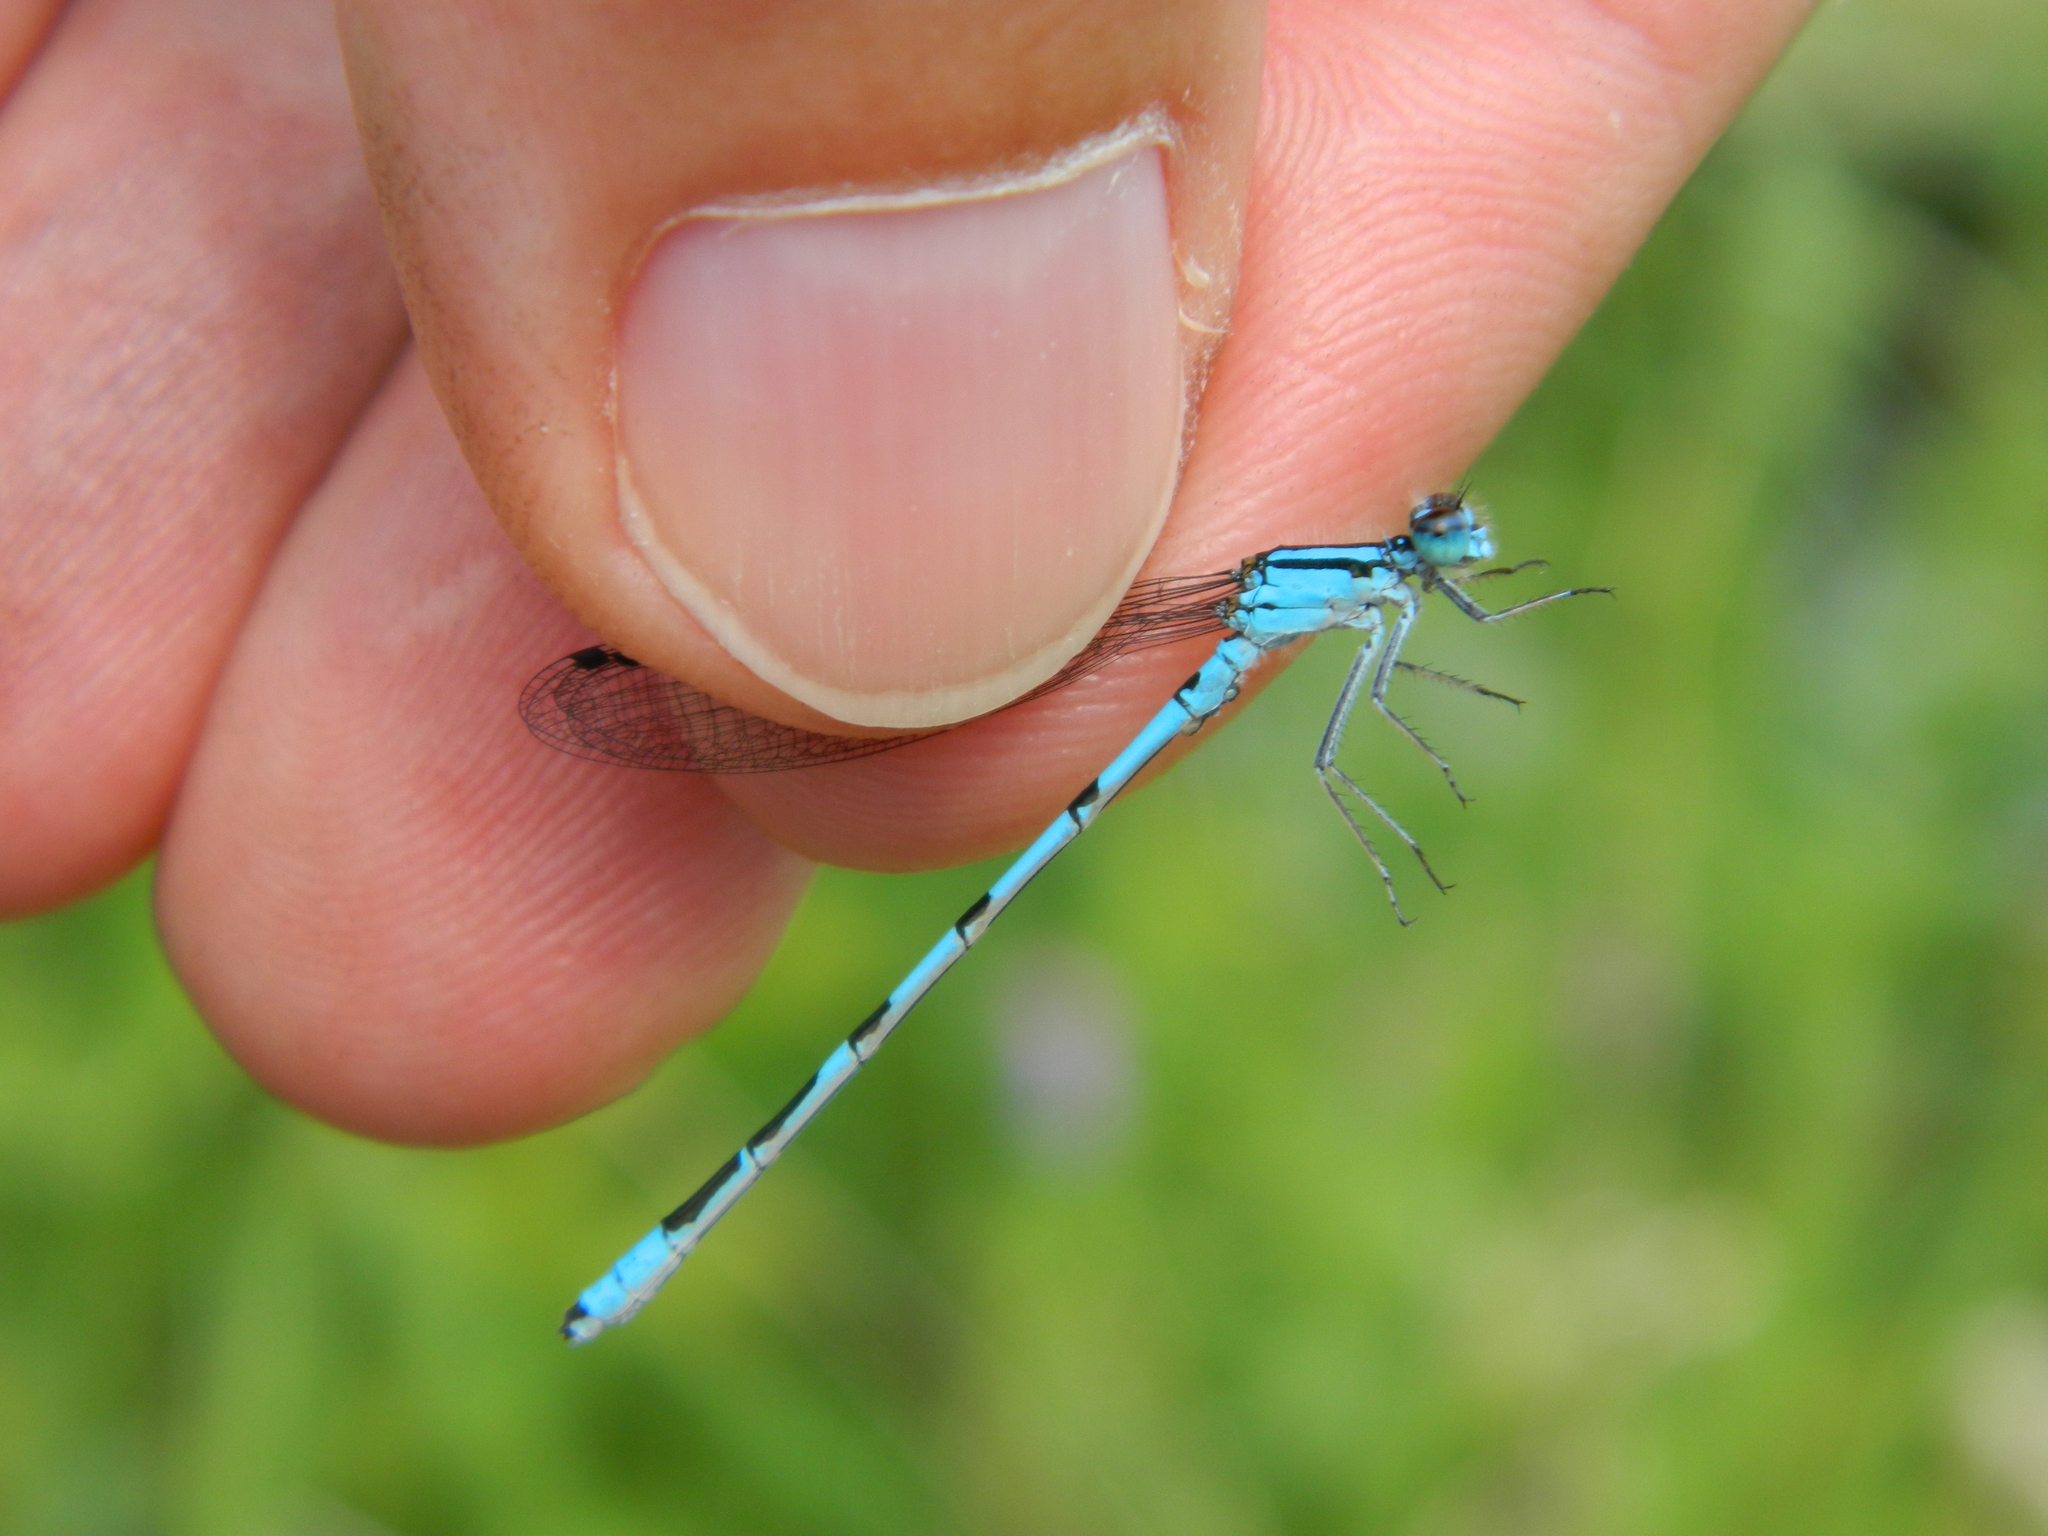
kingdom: Animalia
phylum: Arthropoda
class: Insecta
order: Odonata
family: Coenagrionidae
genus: Enallagma
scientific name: Enallagma ebrium
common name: Marsh bluet
